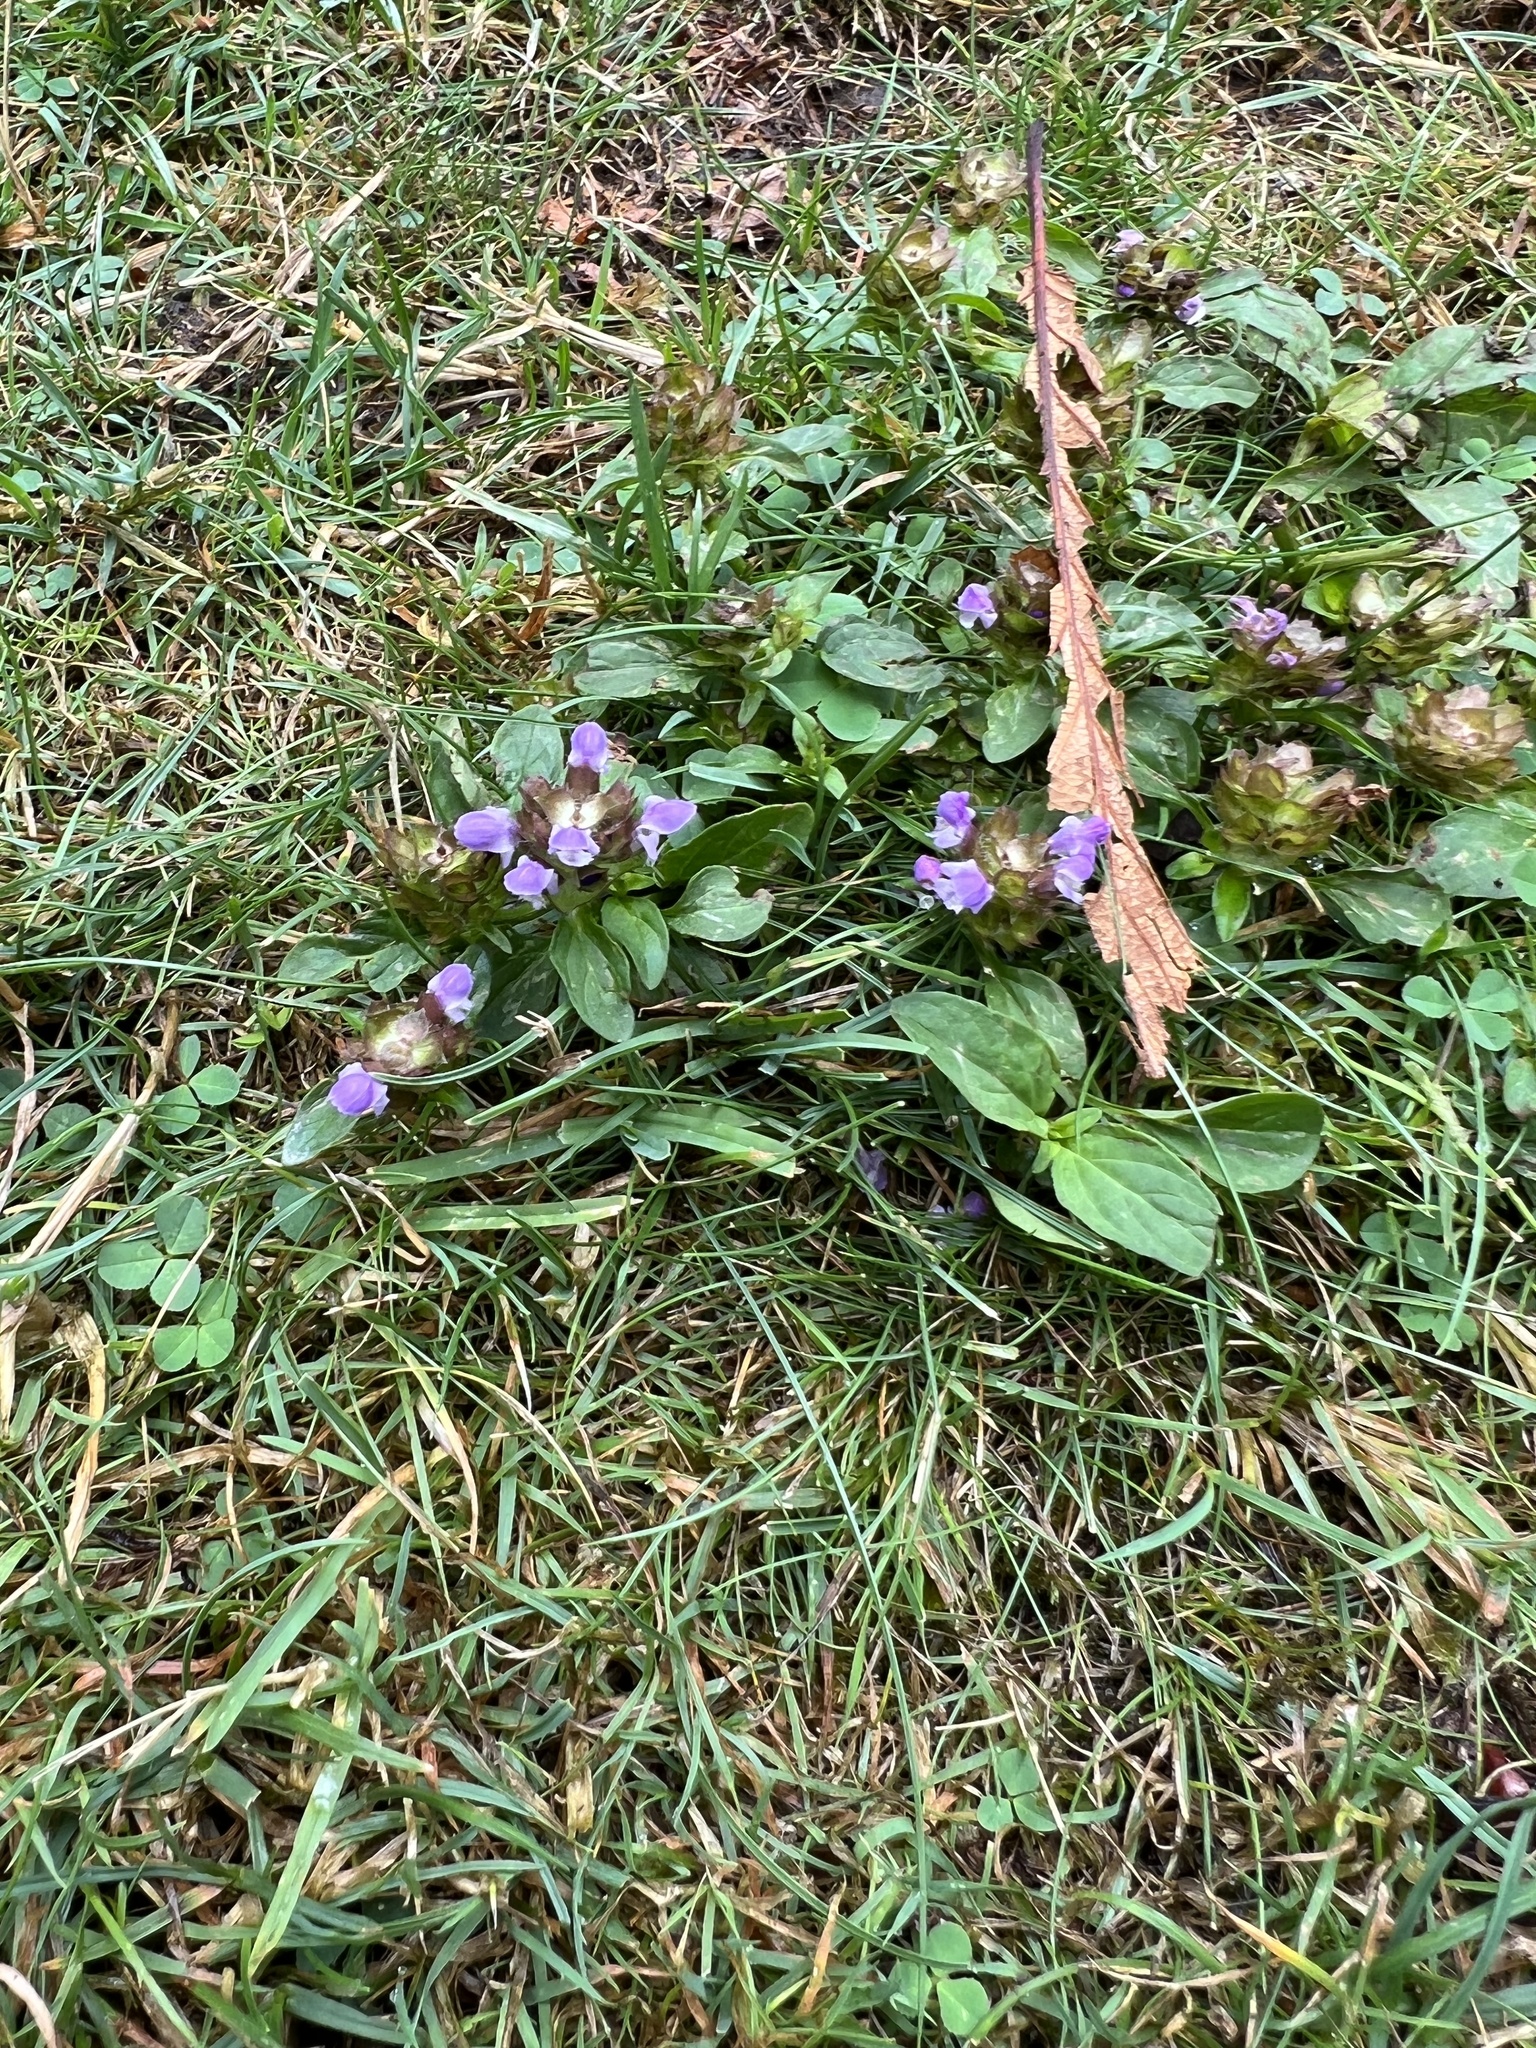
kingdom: Plantae
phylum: Tracheophyta
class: Magnoliopsida
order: Lamiales
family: Lamiaceae
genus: Prunella
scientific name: Prunella vulgaris
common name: Heal-all
